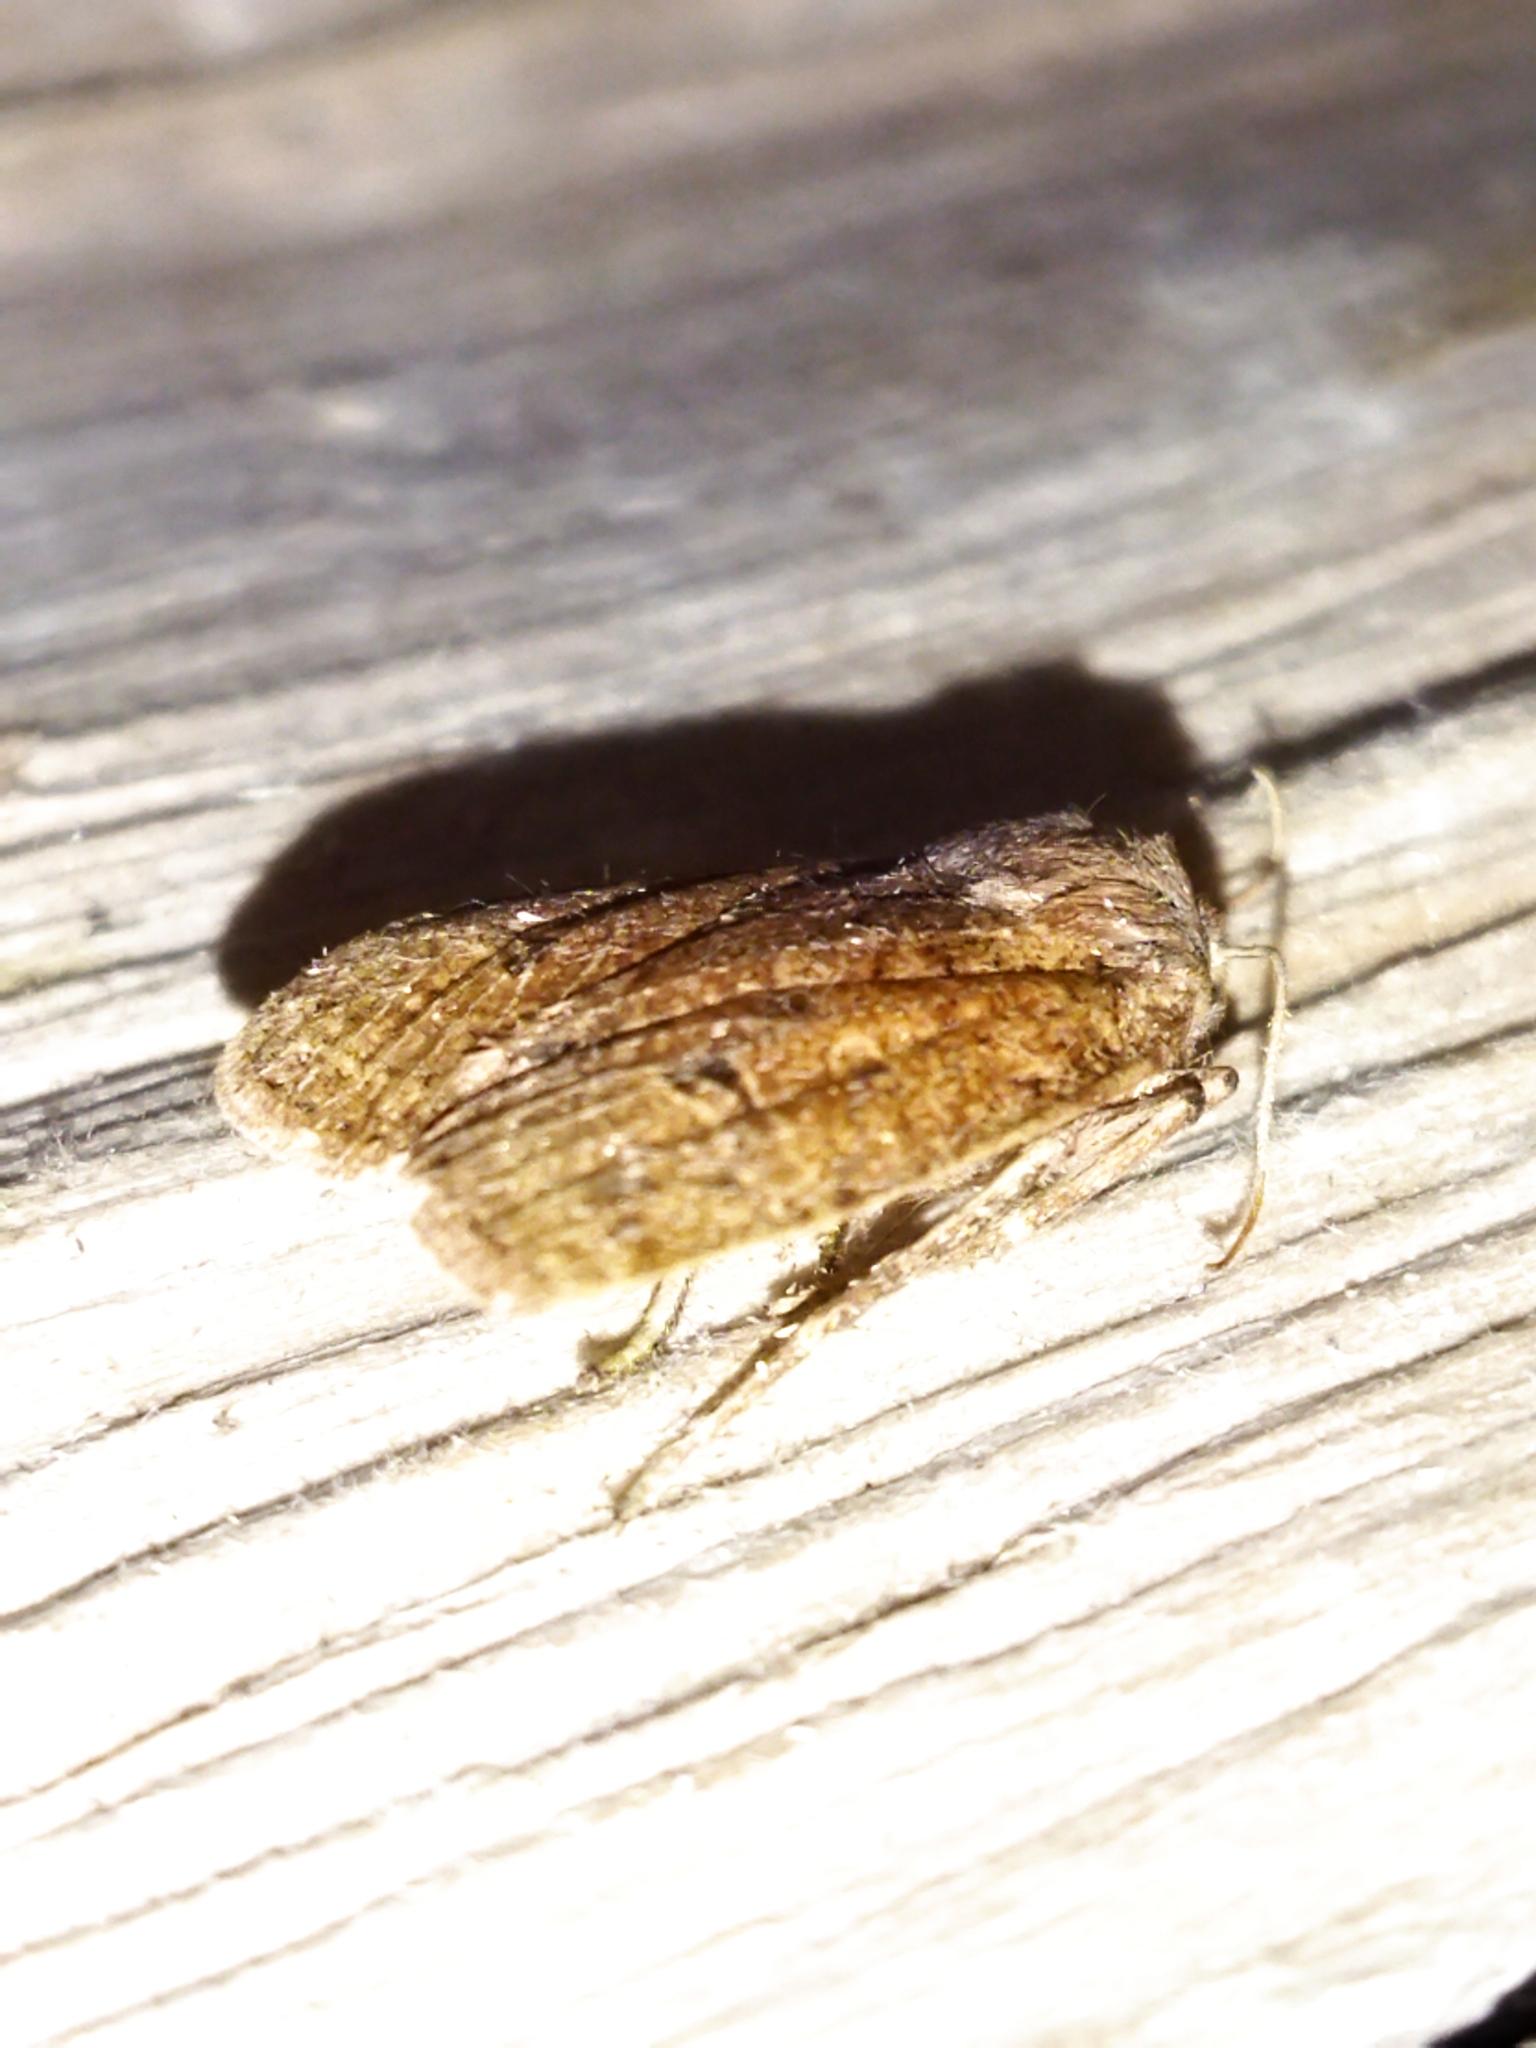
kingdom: Animalia
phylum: Arthropoda
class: Insecta
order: Lepidoptera
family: Noctuidae
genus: Conistra
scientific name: Conistra ragusae
